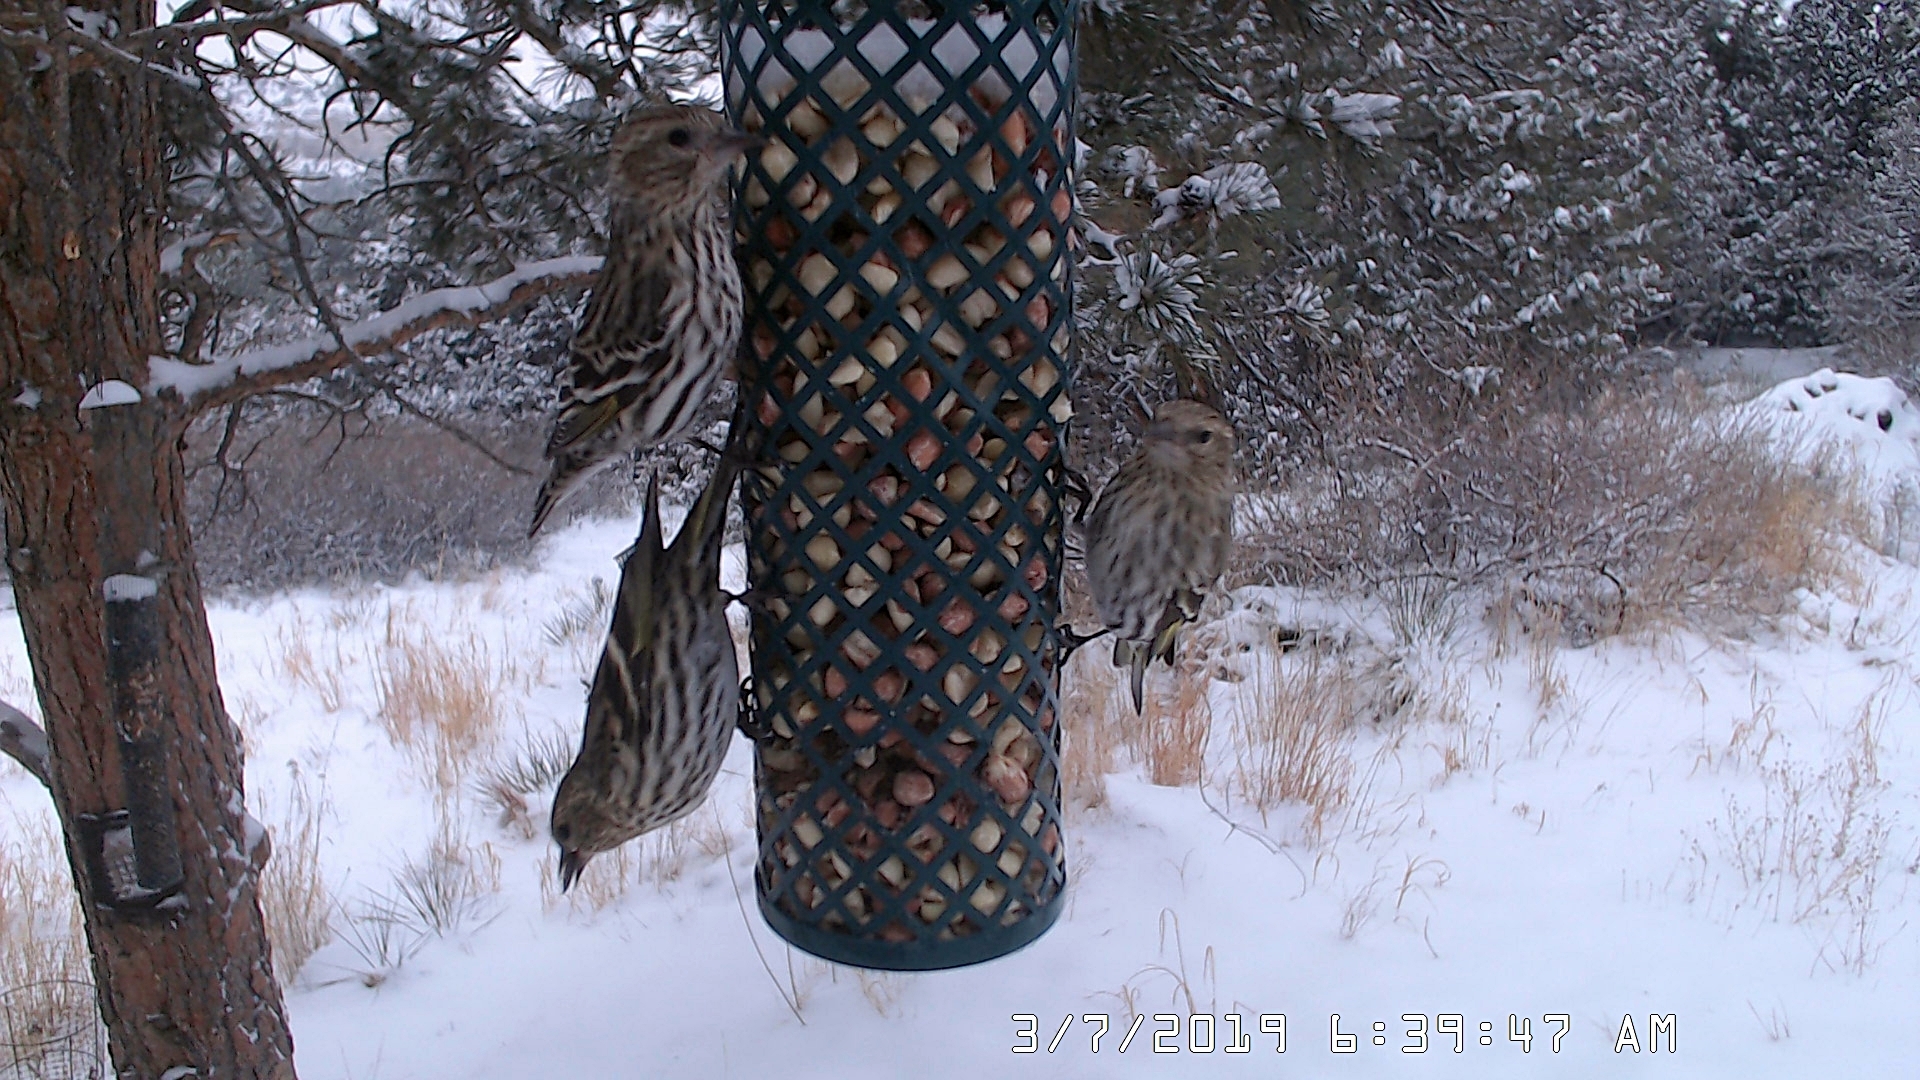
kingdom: Animalia
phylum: Chordata
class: Aves
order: Passeriformes
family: Fringillidae
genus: Spinus
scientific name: Spinus pinus
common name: Pine siskin
